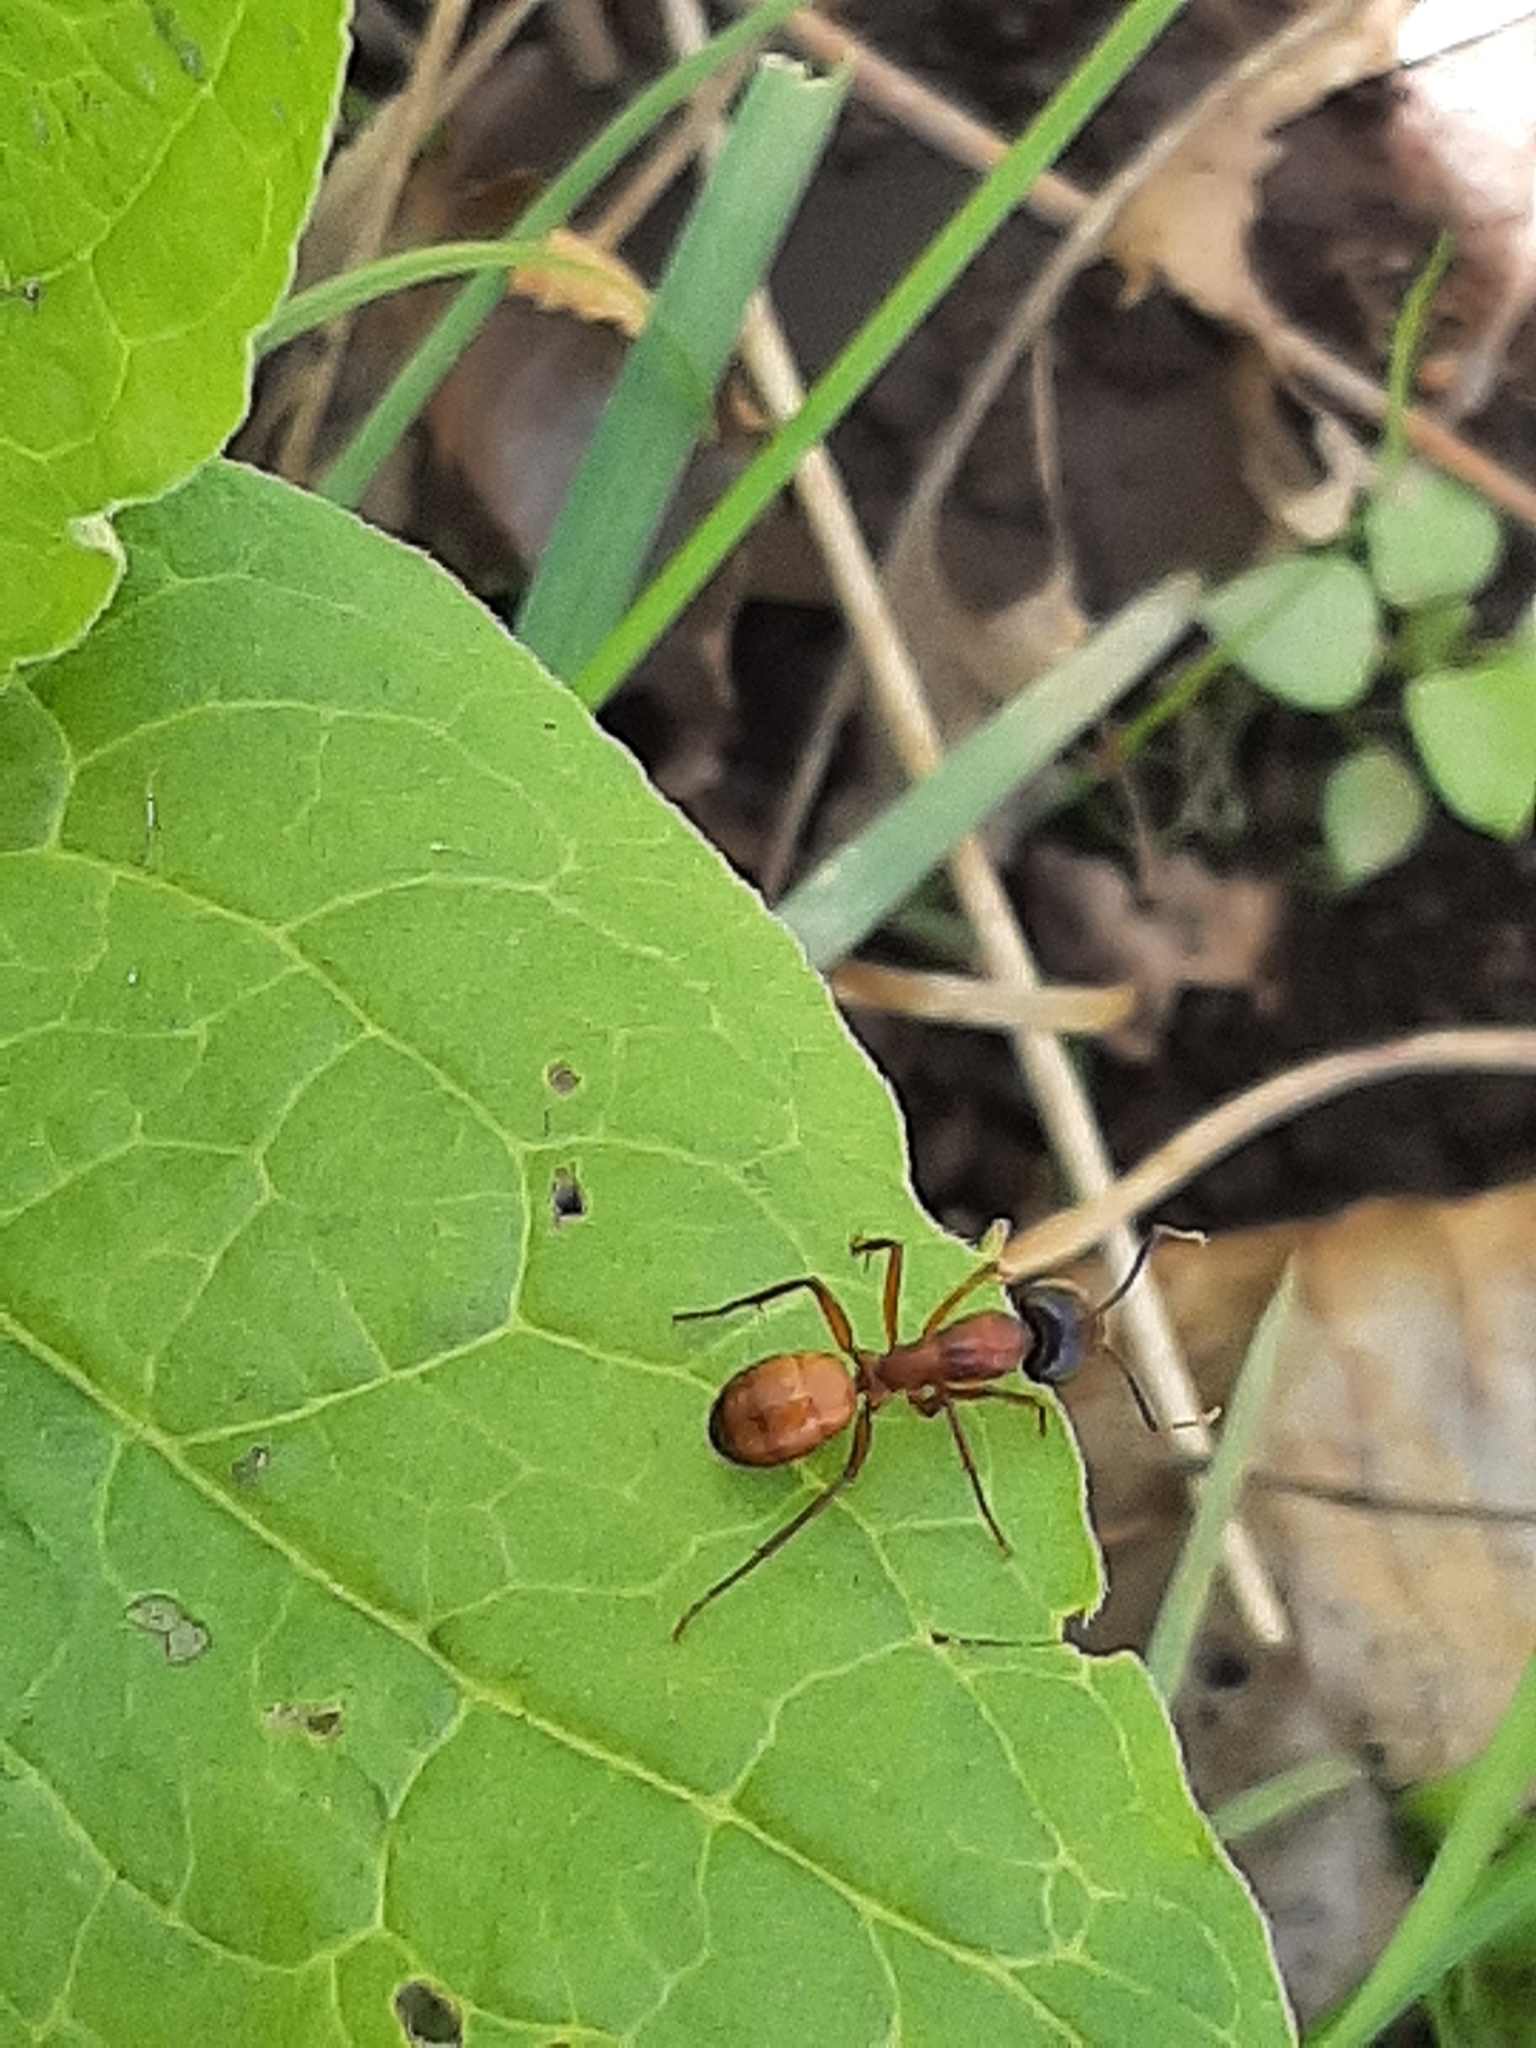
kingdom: Animalia
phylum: Arthropoda
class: Insecta
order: Hymenoptera
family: Formicidae
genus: Camponotus
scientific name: Camponotus americanus
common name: American carpenter ant
